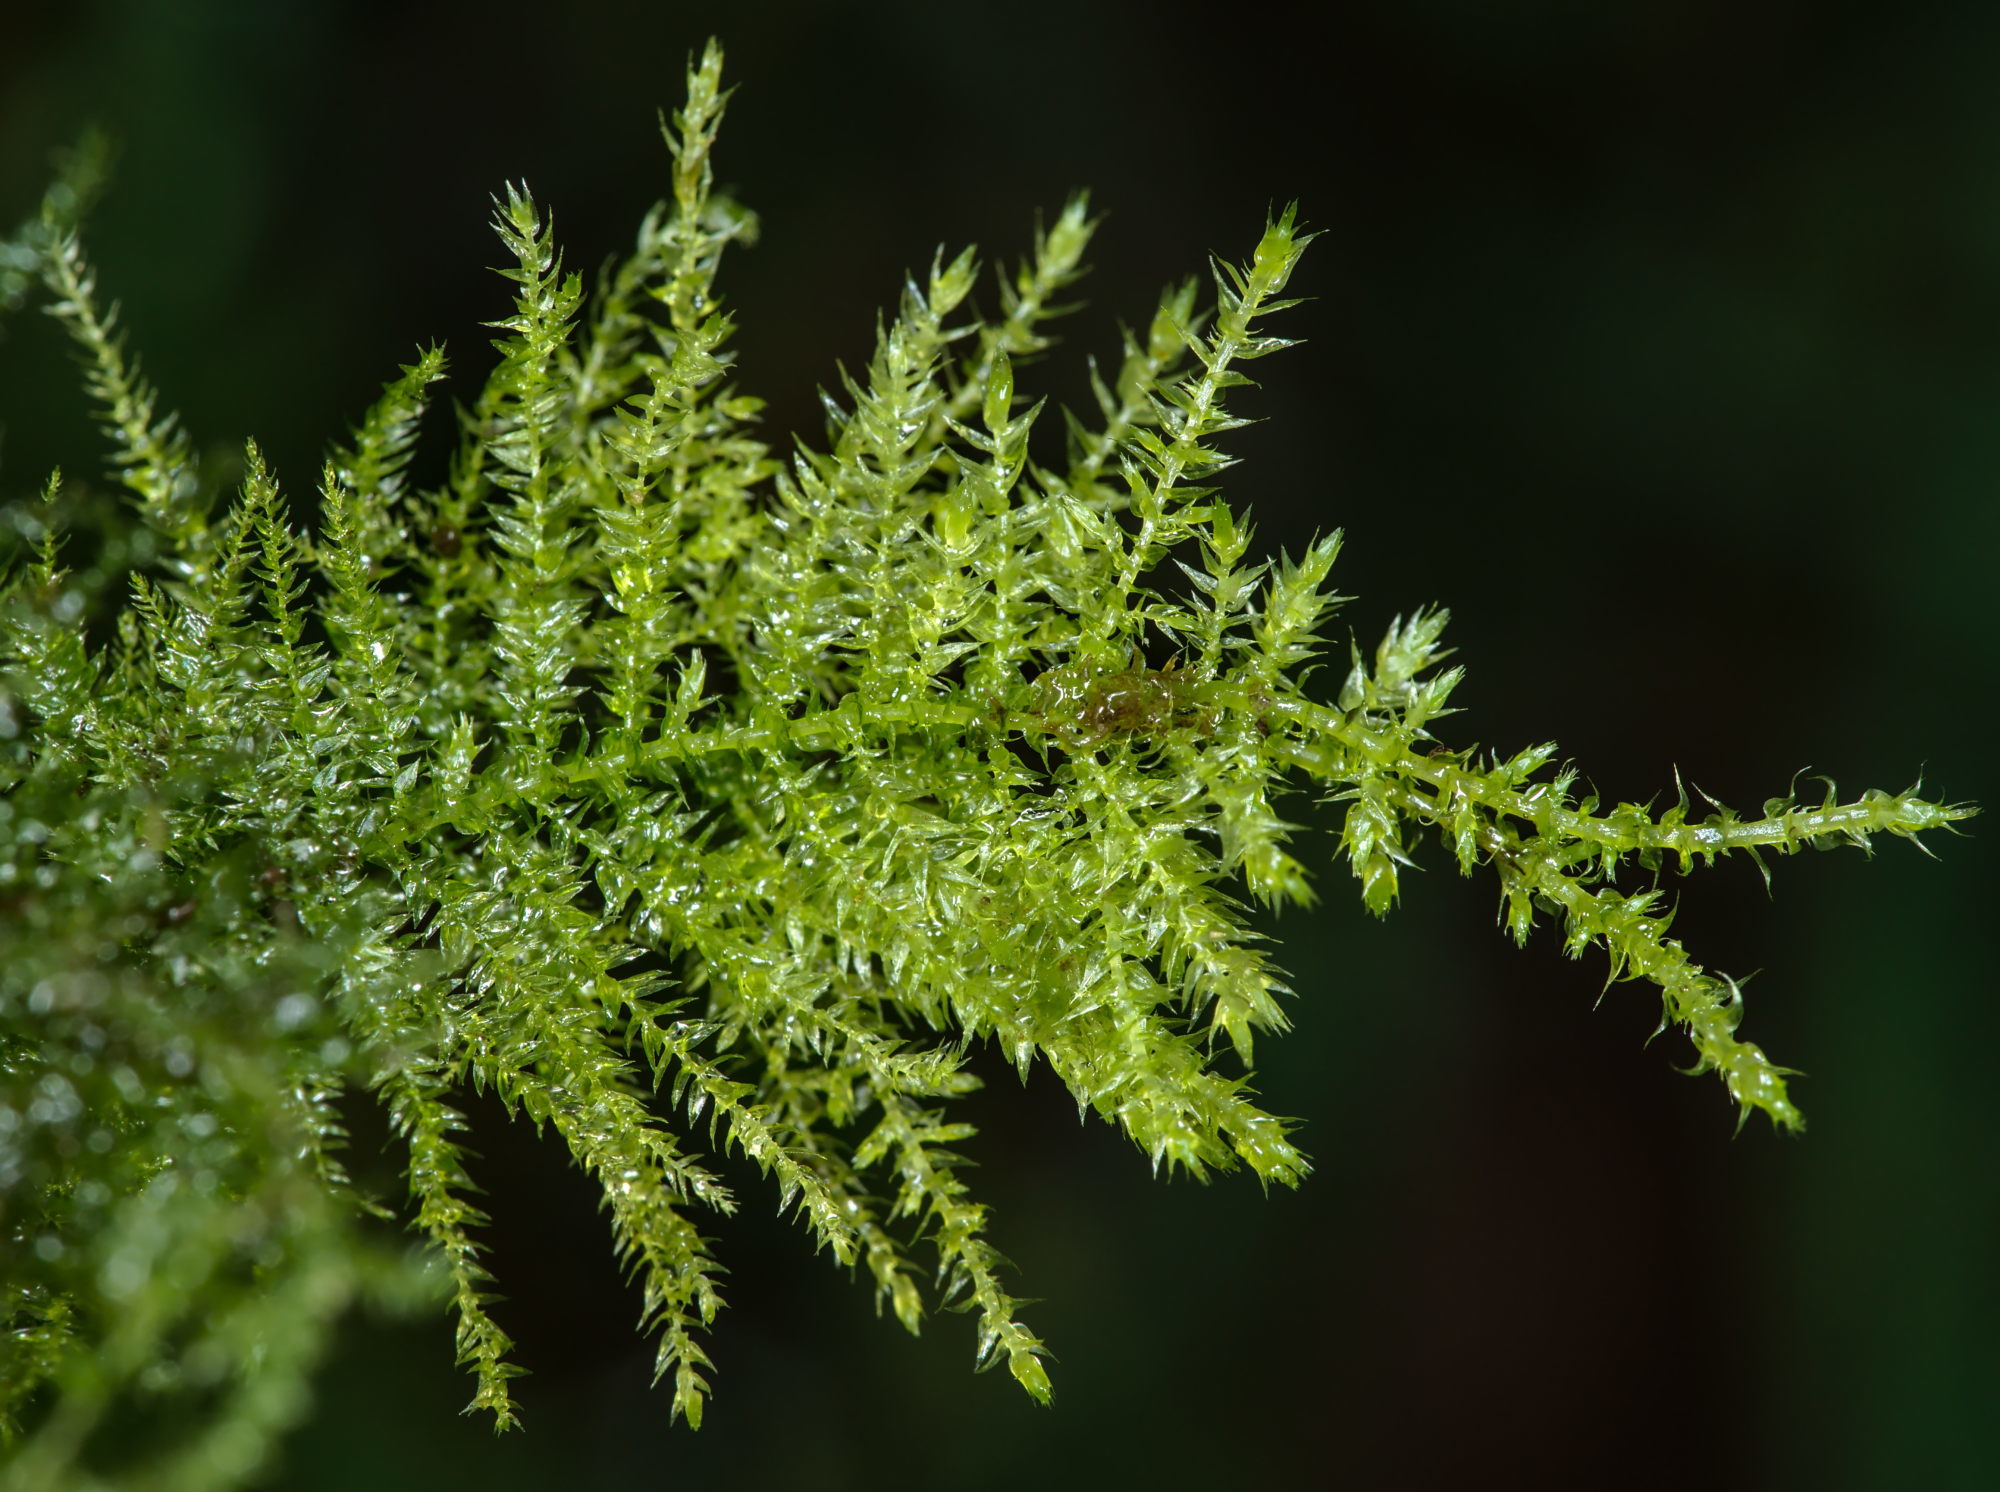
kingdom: Plantae
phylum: Bryophyta
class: Bryopsida
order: Hypnales
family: Brachytheciaceae
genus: Kindbergia
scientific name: Kindbergia praelonga
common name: Slender beaked moss
